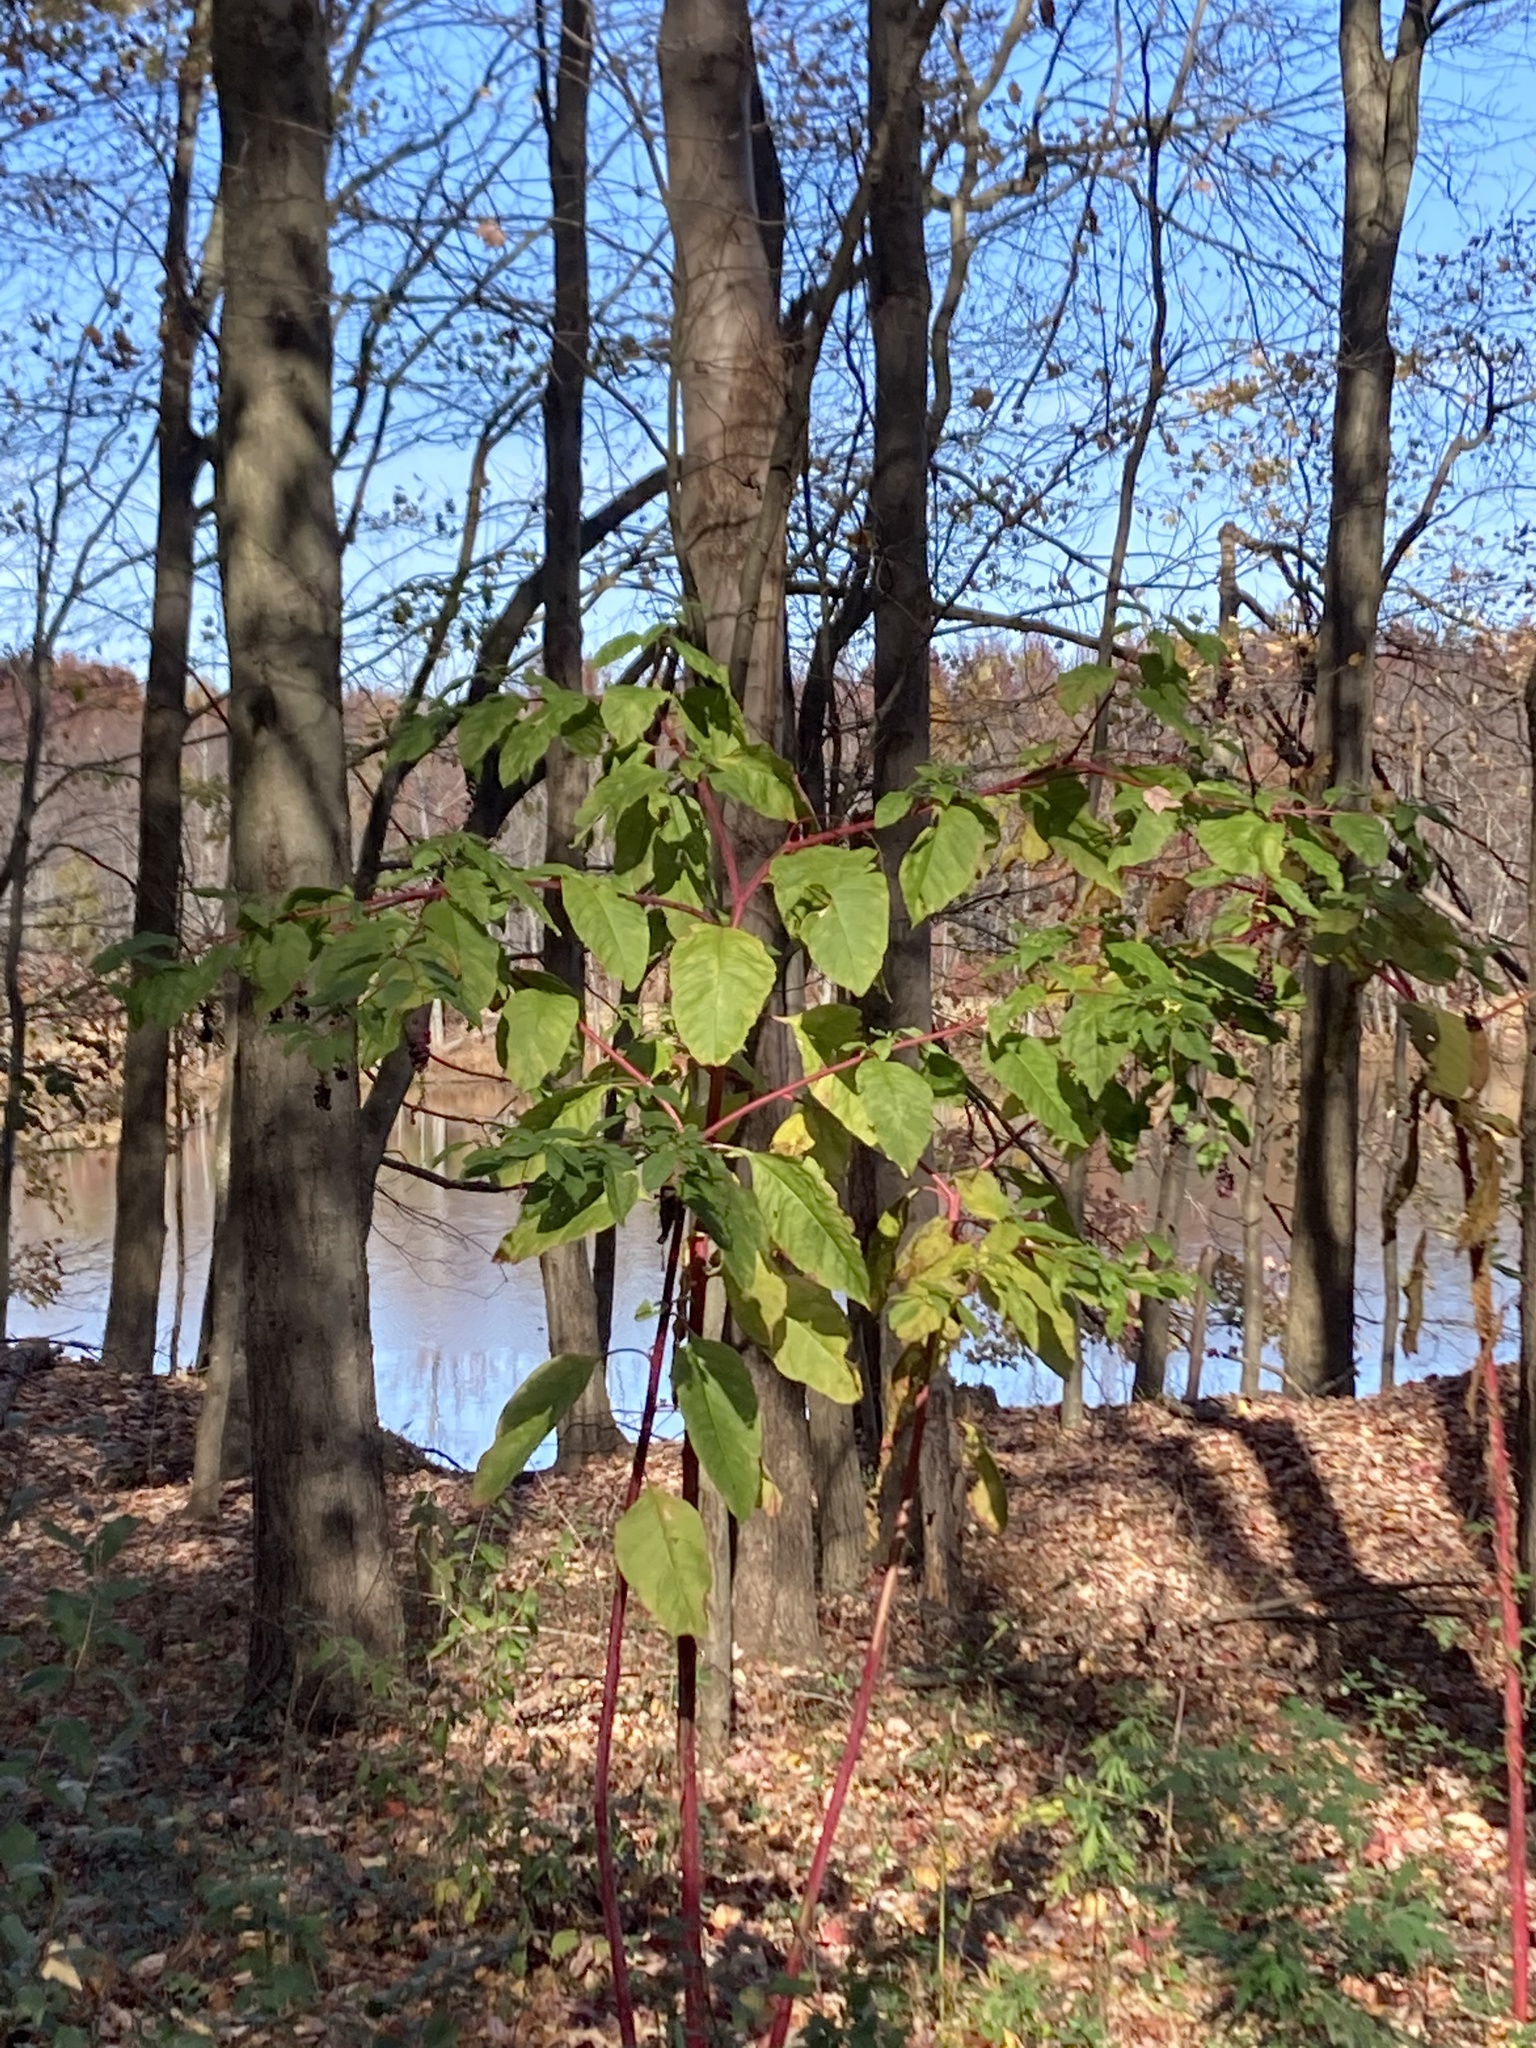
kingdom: Plantae
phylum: Tracheophyta
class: Magnoliopsida
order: Caryophyllales
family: Phytolaccaceae
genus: Phytolacca
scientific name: Phytolacca americana
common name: American pokeweed
